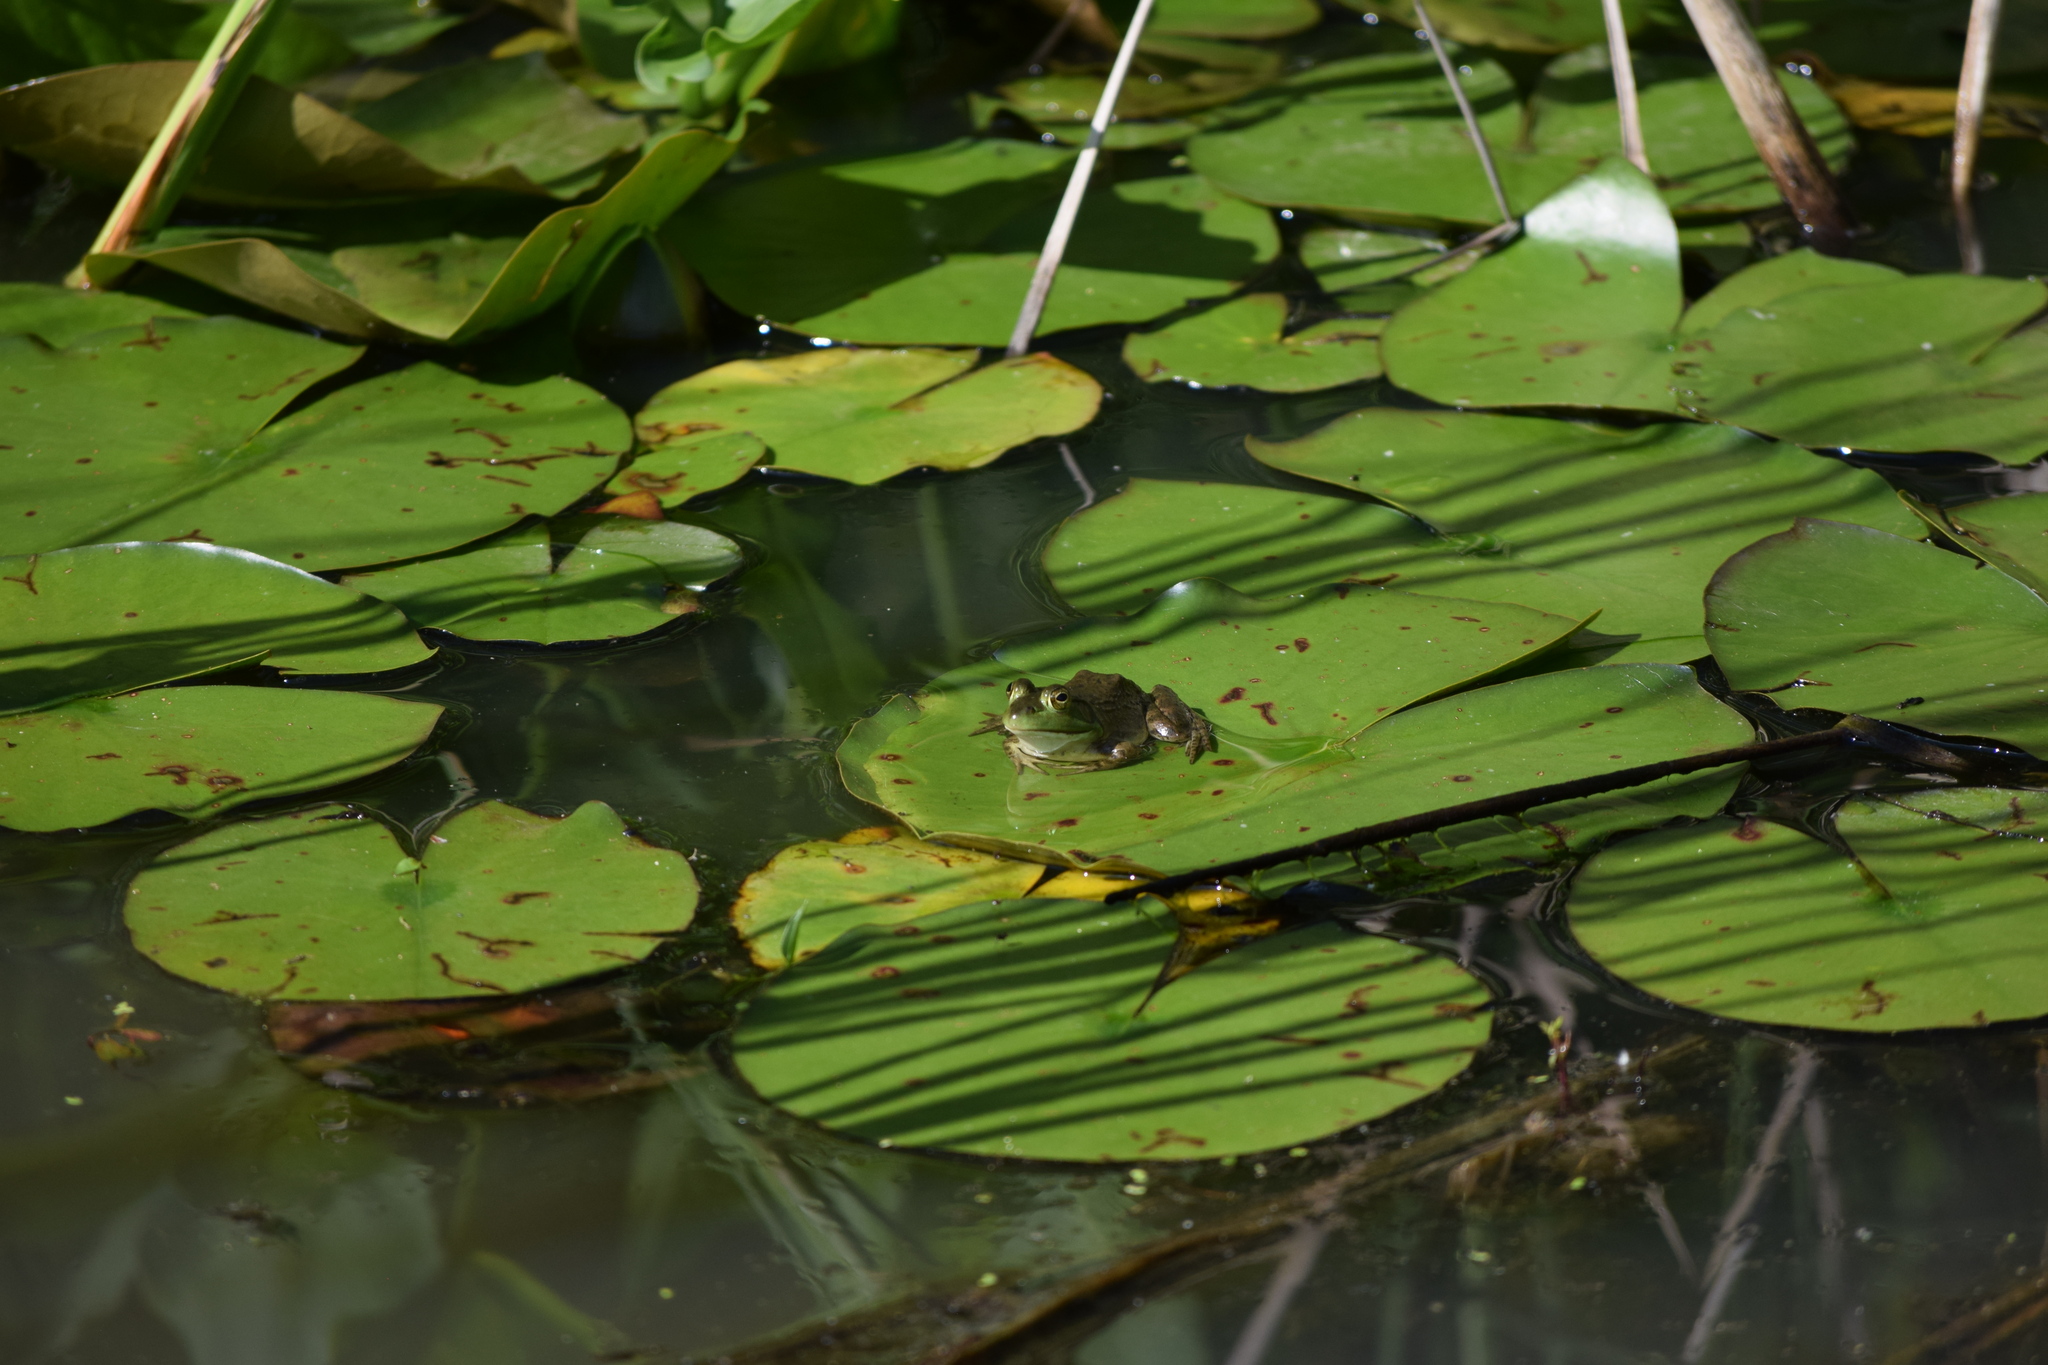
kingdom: Animalia
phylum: Chordata
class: Amphibia
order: Anura
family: Ranidae
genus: Lithobates
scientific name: Lithobates catesbeianus
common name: American bullfrog
